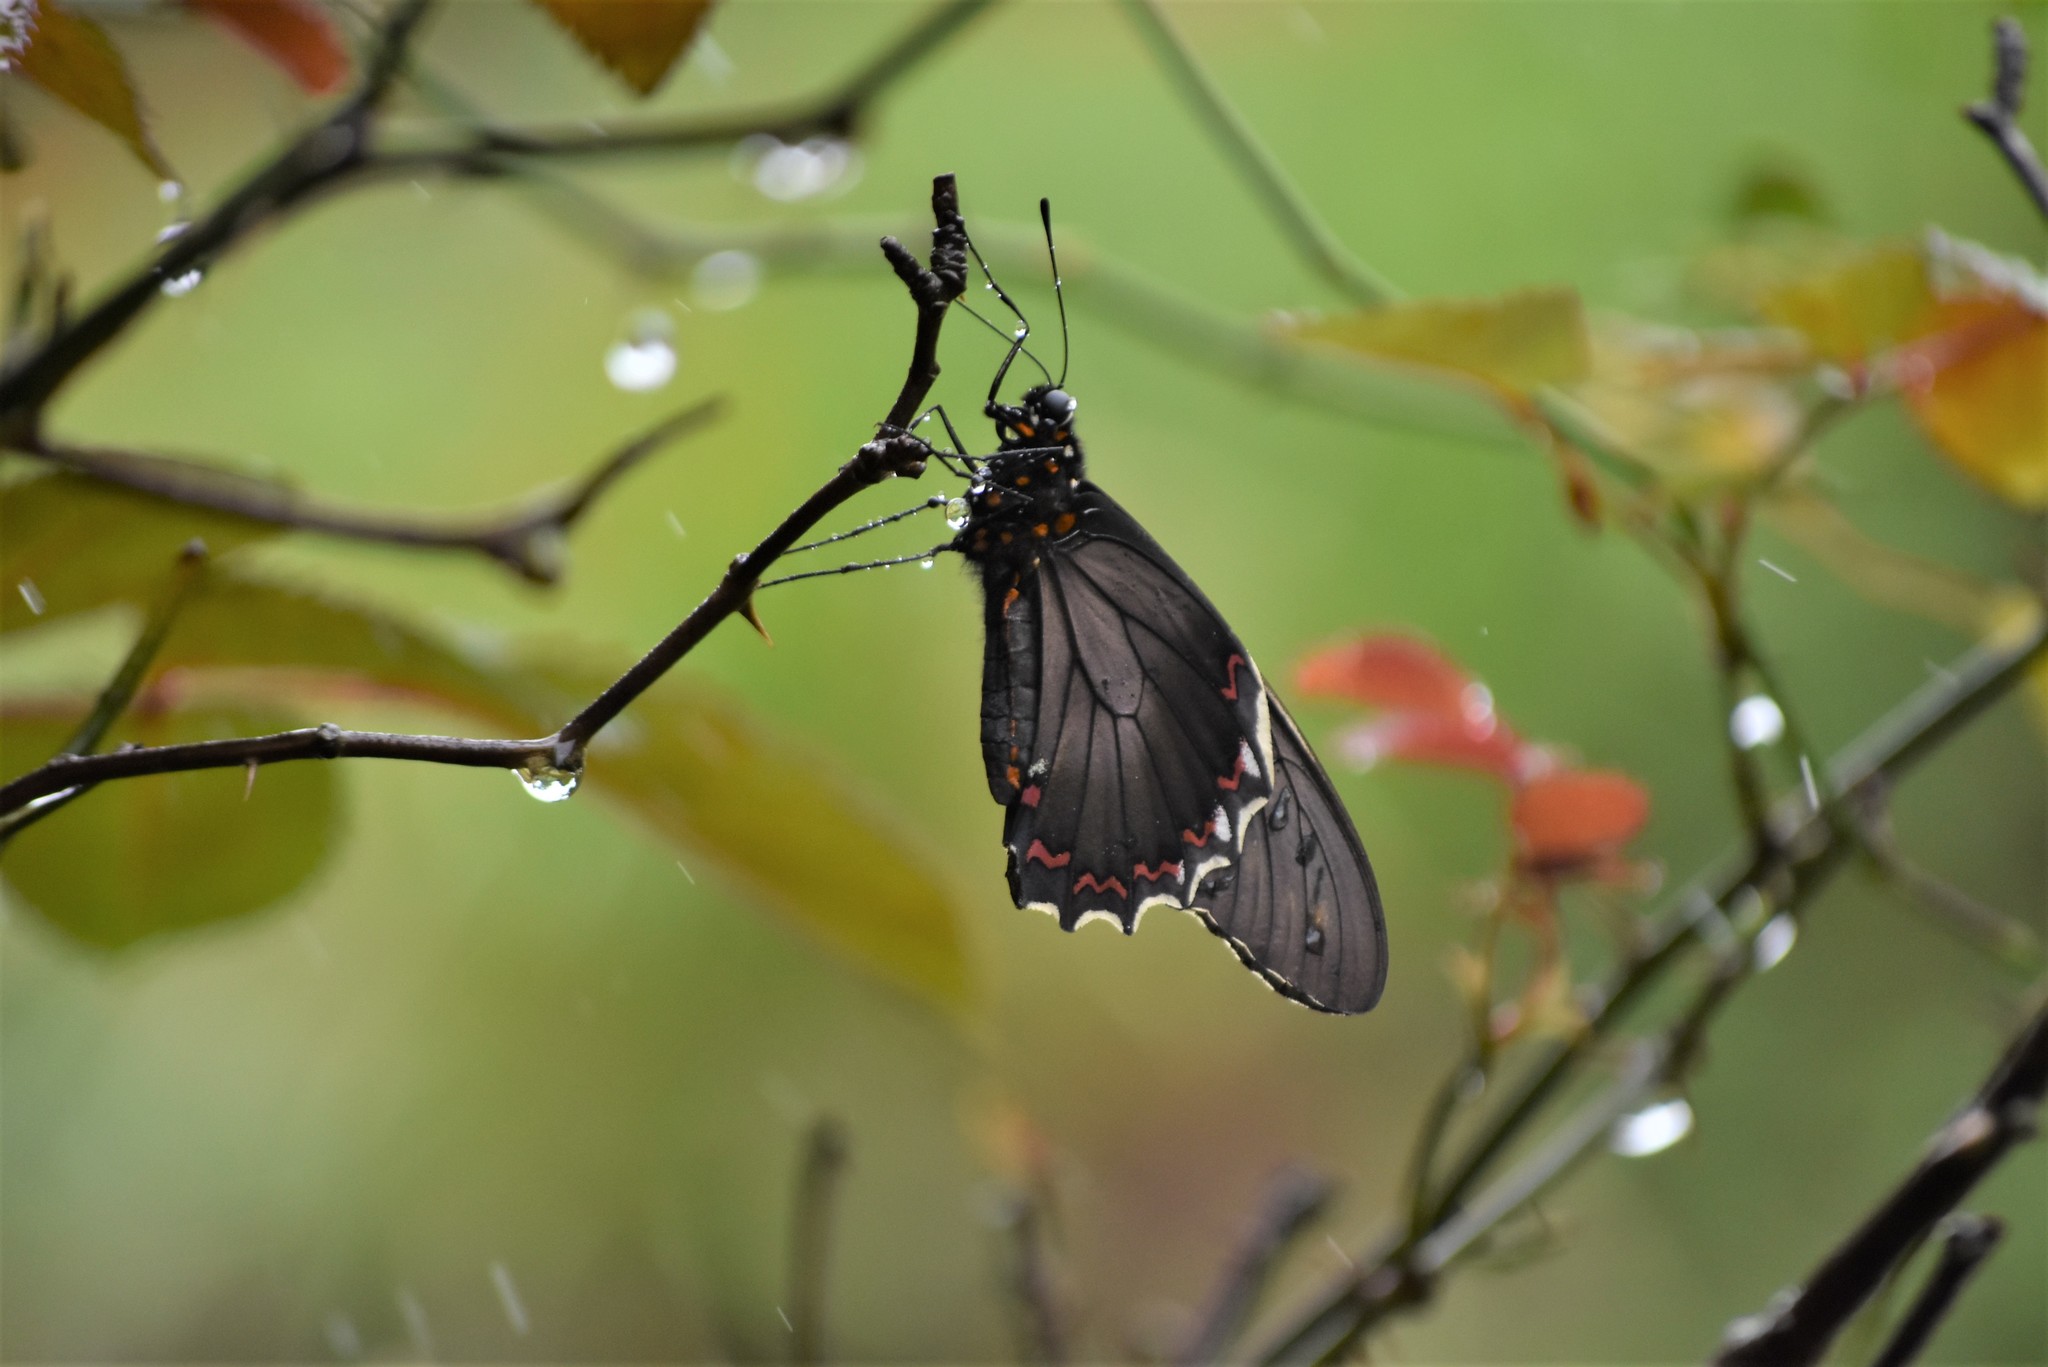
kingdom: Animalia
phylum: Arthropoda
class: Insecta
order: Lepidoptera
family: Papilionidae
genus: Battus
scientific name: Battus polydamas
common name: Polydamas swallowtail
